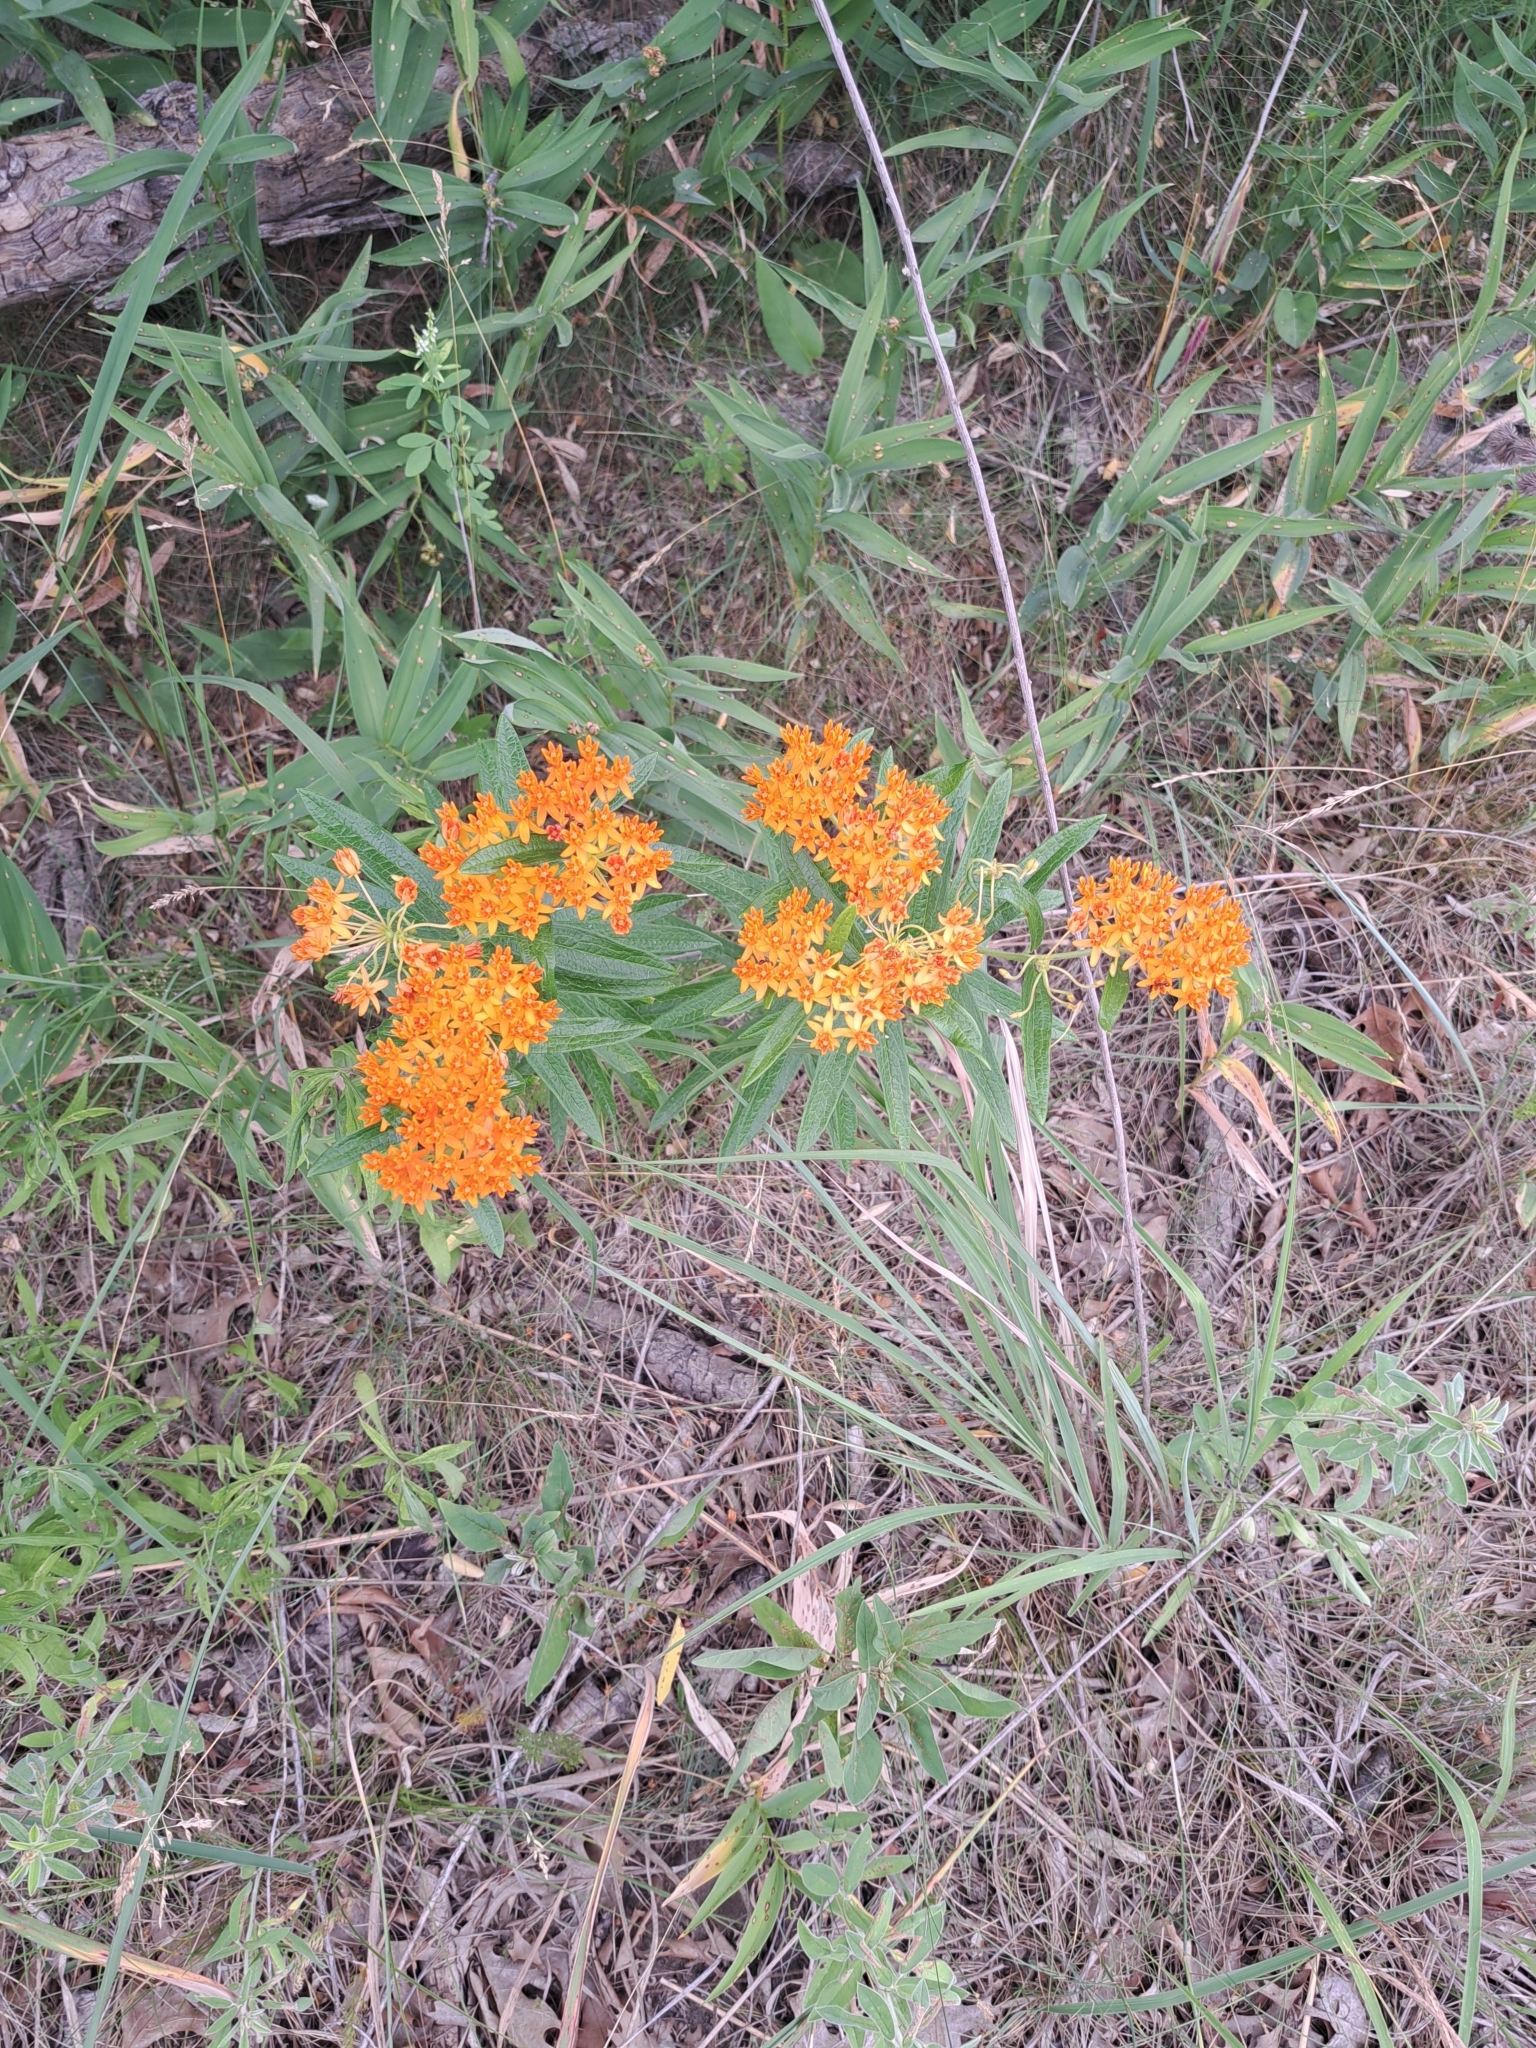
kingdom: Plantae
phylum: Tracheophyta
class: Magnoliopsida
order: Gentianales
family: Apocynaceae
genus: Asclepias
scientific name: Asclepias tuberosa
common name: Butterfly milkweed
